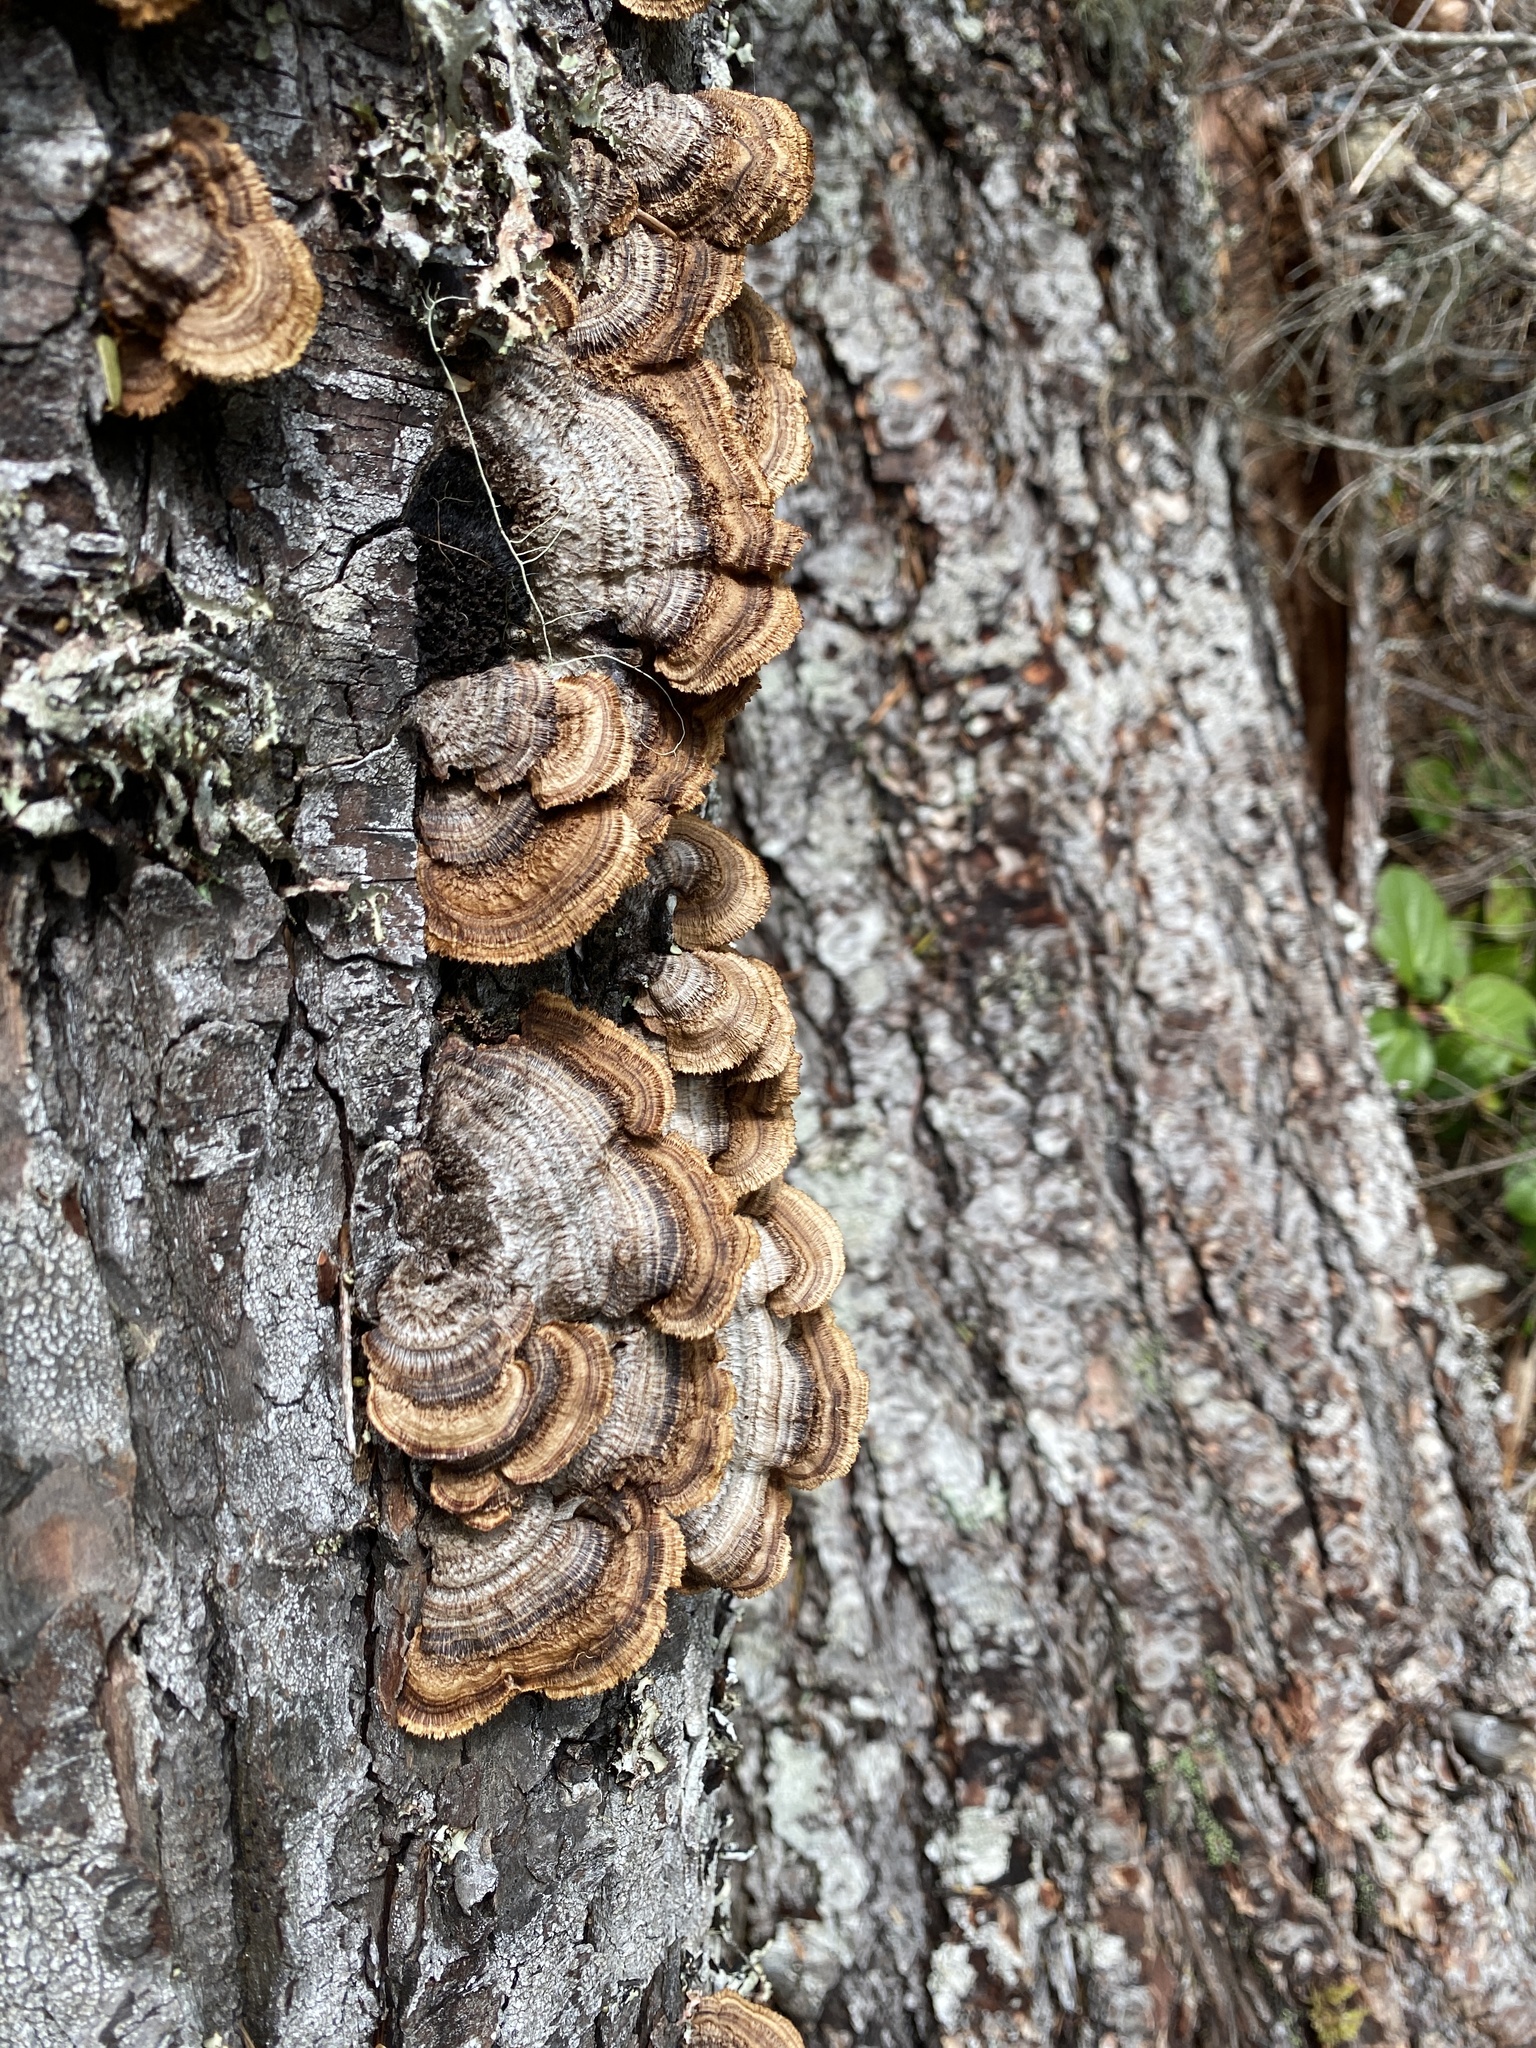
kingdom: Fungi
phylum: Basidiomycota
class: Agaricomycetes
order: Gloeophyllales
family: Gloeophyllaceae
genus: Gloeophyllum
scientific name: Gloeophyllum sepiarium
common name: Conifer mazegill
